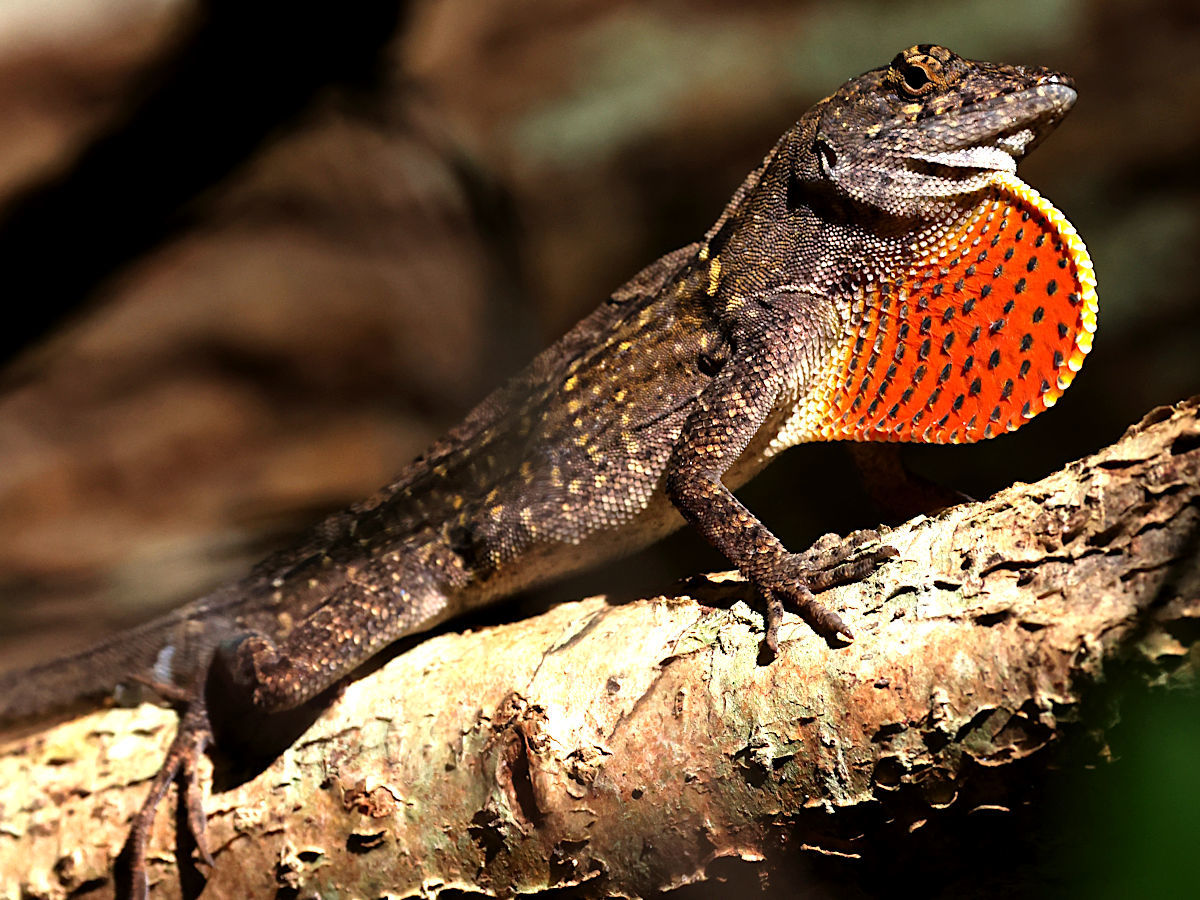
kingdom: Animalia
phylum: Chordata
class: Squamata
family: Dactyloidae
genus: Anolis
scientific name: Anolis sagrei
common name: Brown anole
